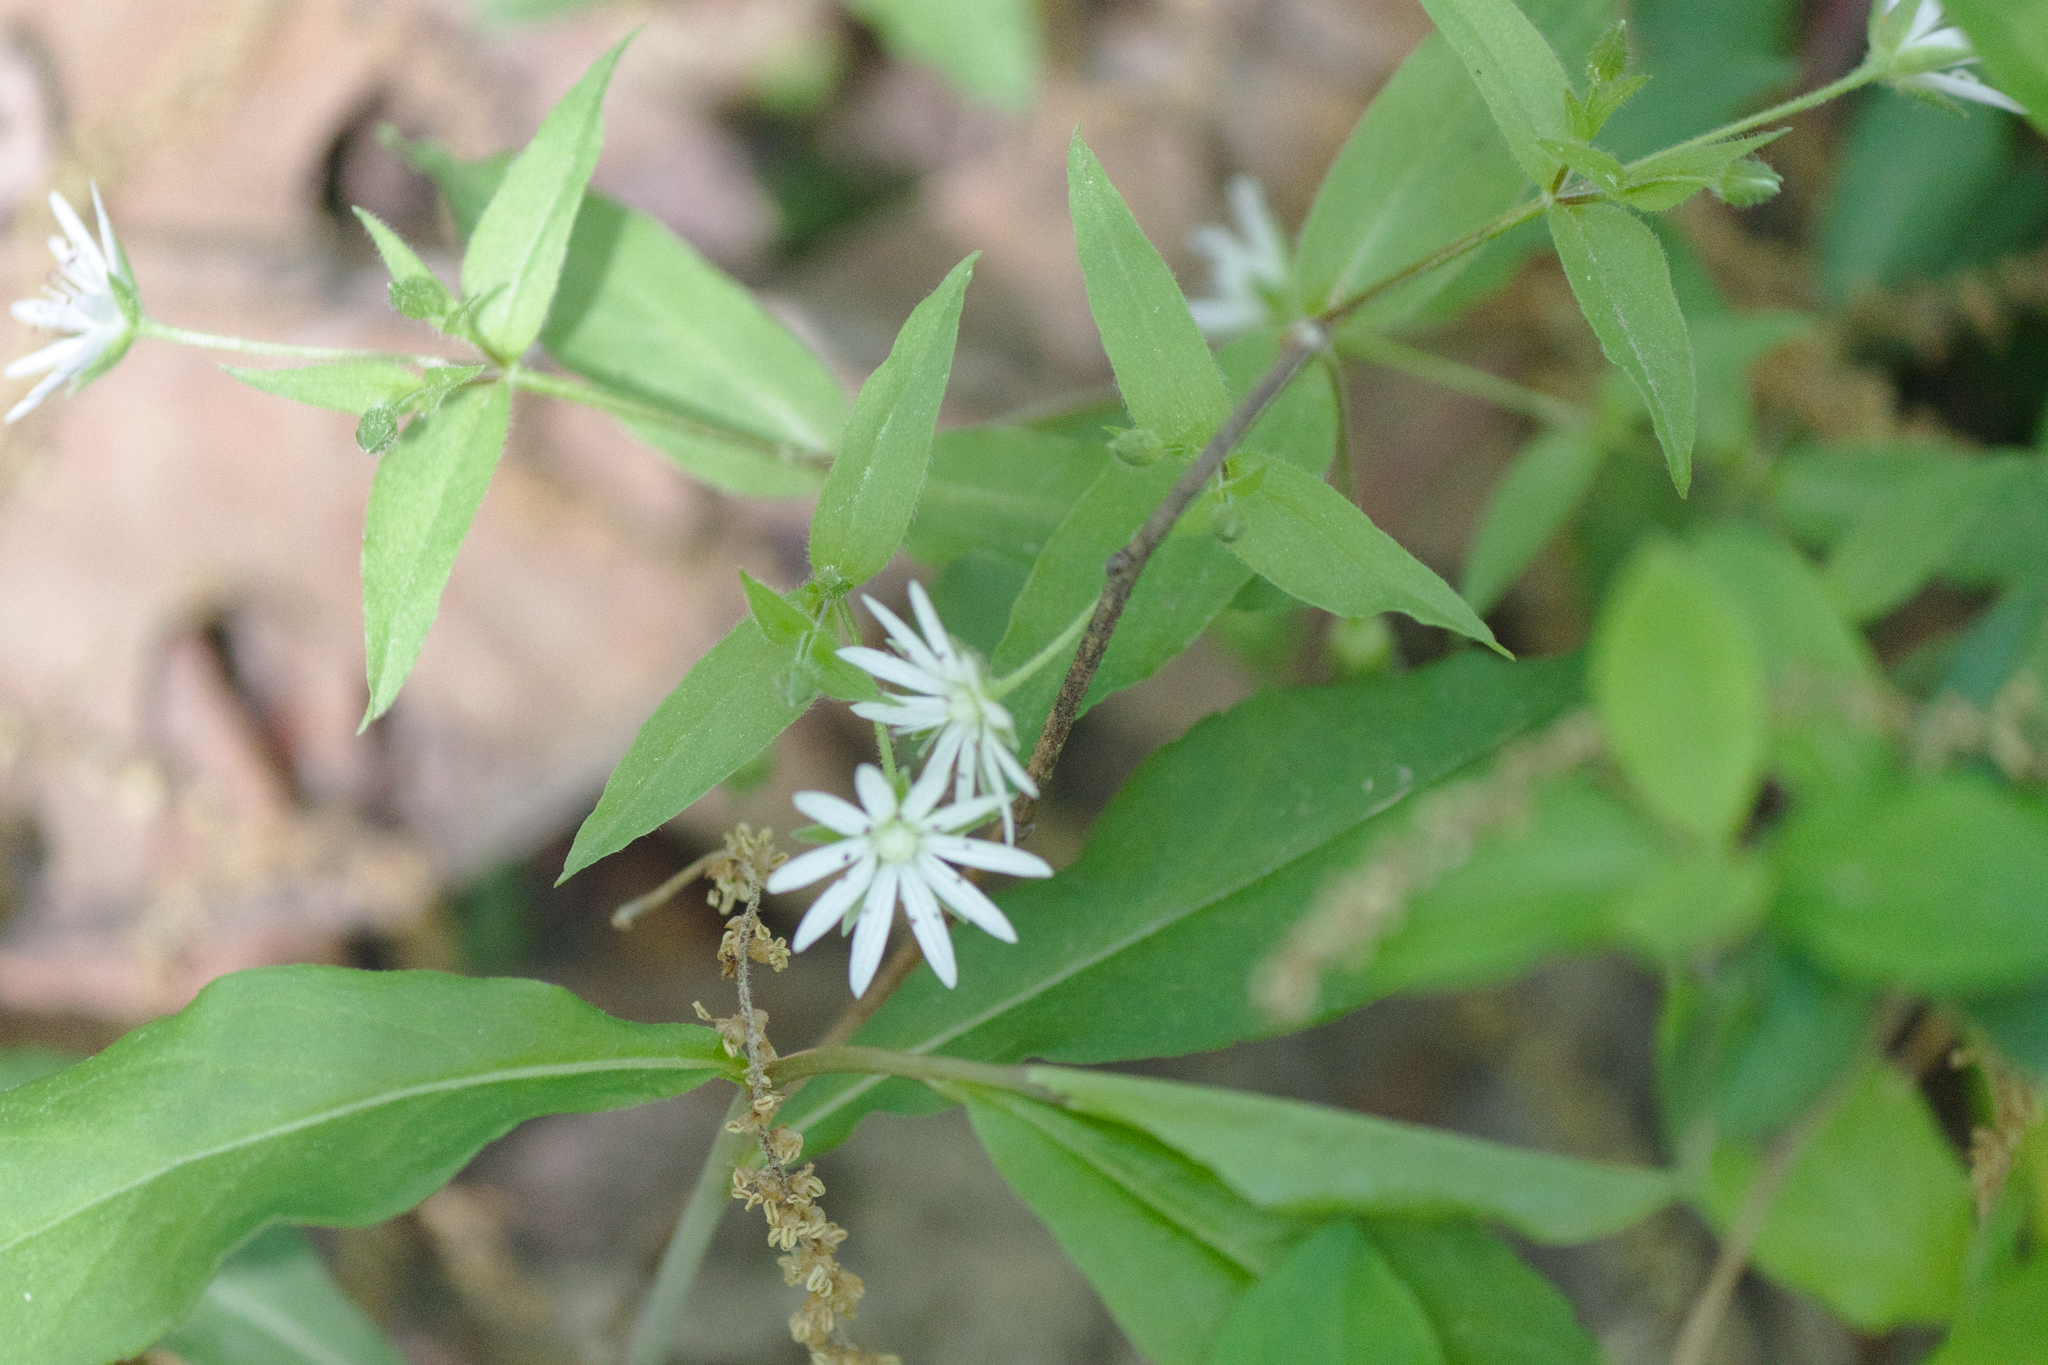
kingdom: Plantae
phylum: Tracheophyta
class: Magnoliopsida
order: Caryophyllales
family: Caryophyllaceae
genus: Stellaria
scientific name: Stellaria pubera
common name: Star chickweed
